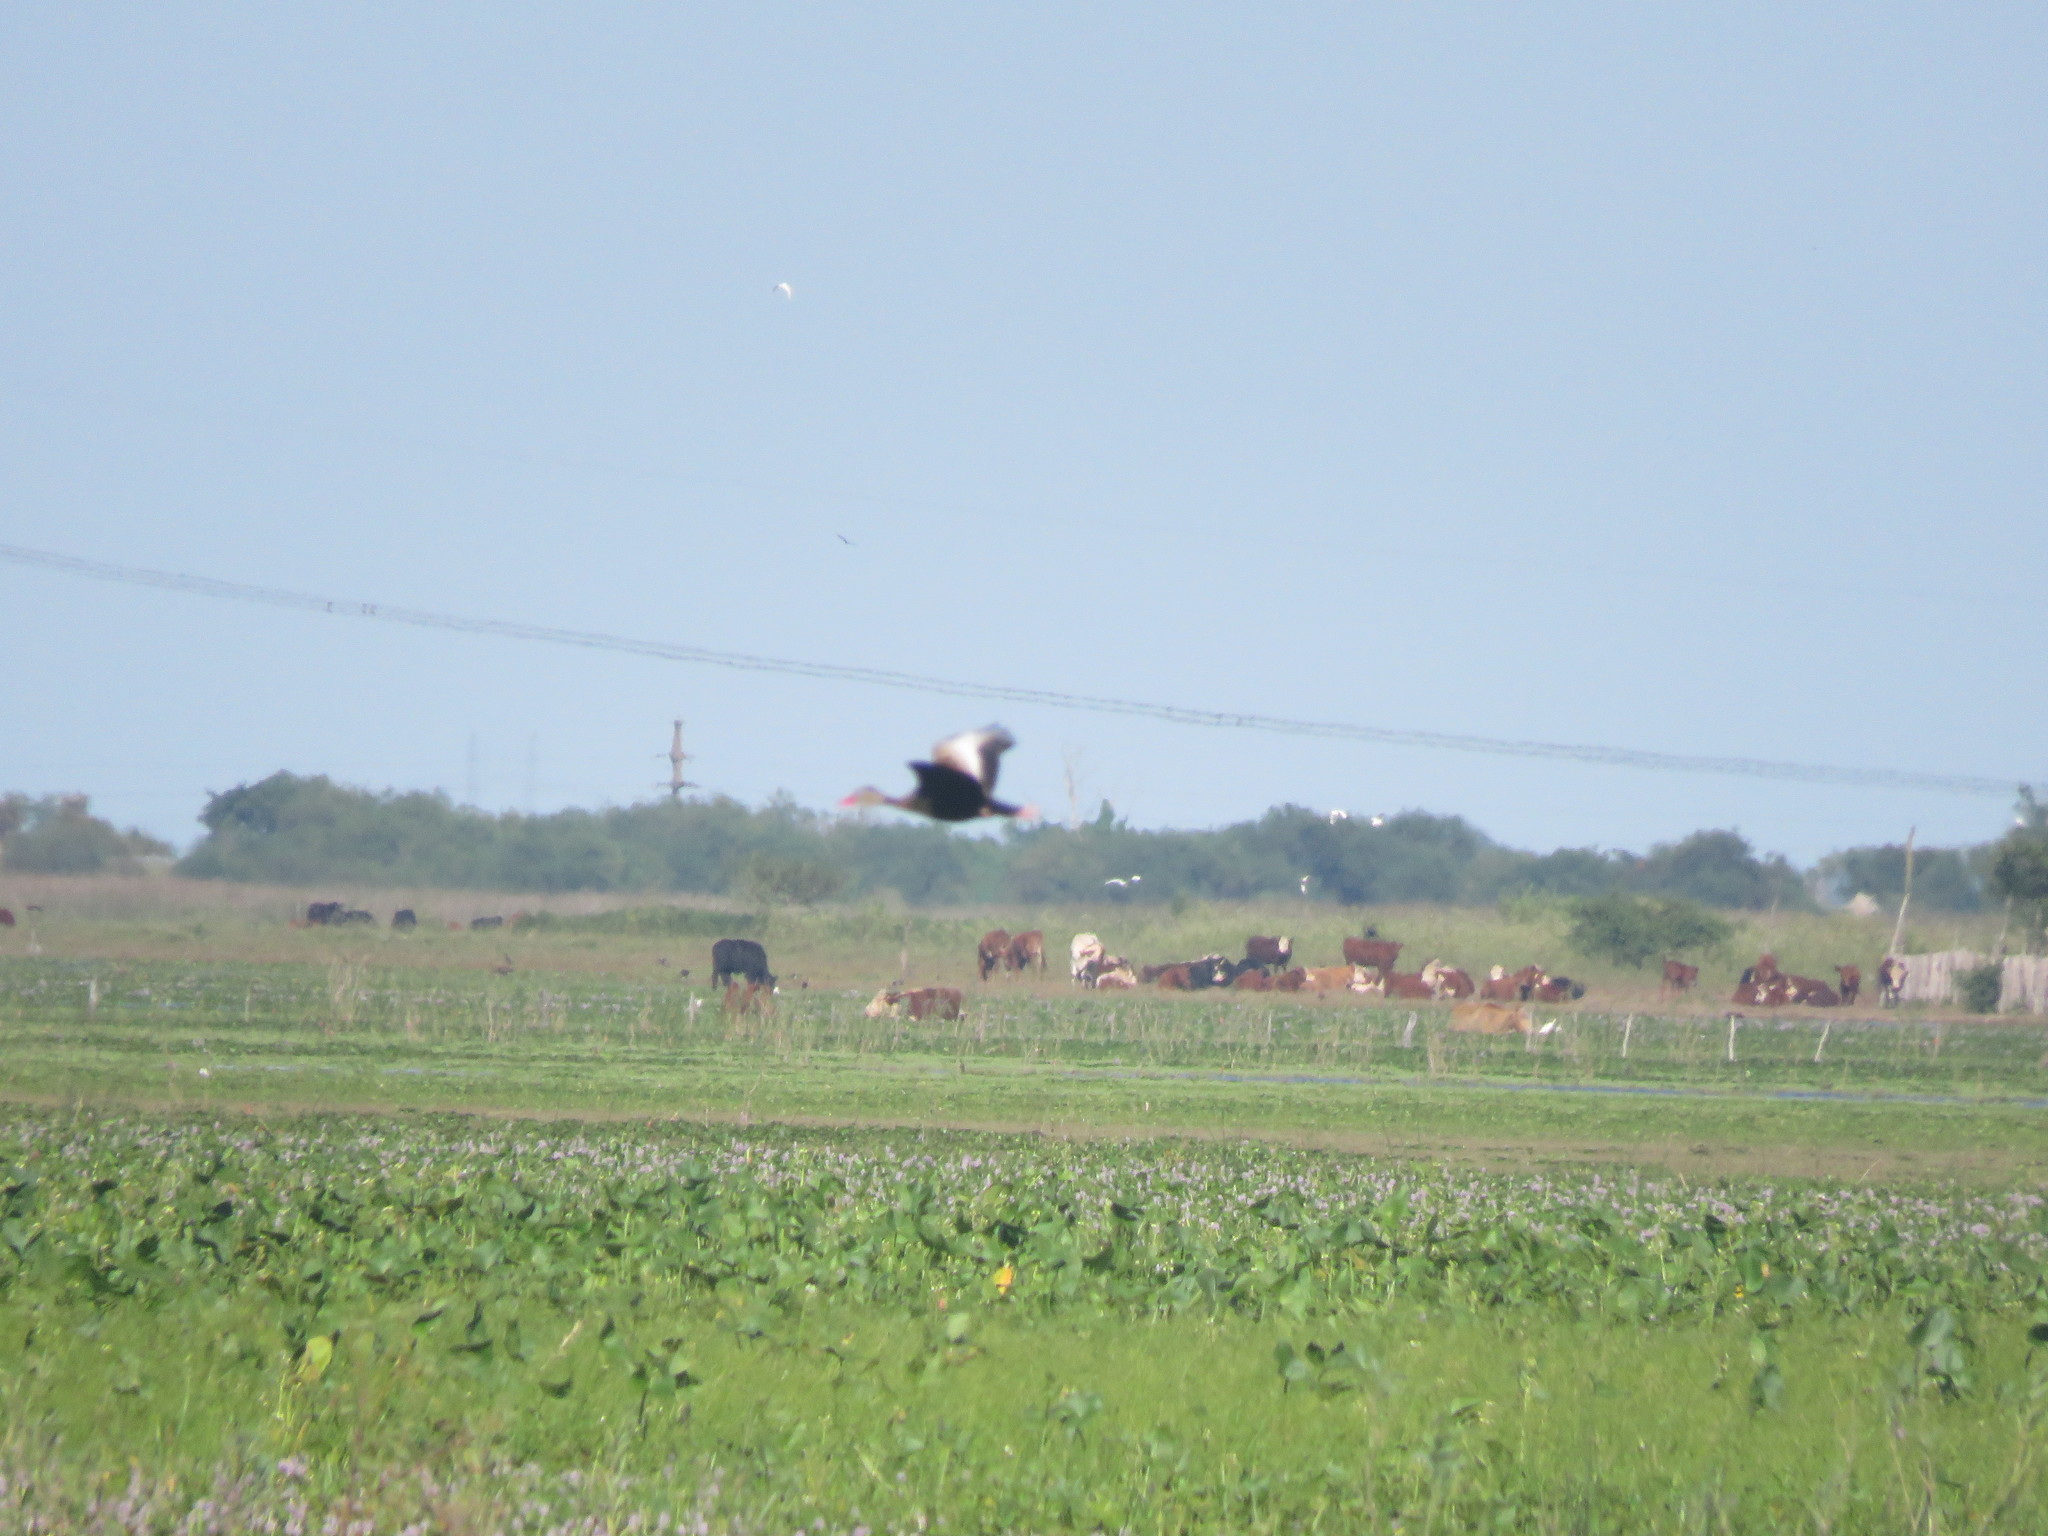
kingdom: Animalia
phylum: Chordata
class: Aves
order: Anseriformes
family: Anatidae
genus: Dendrocygna
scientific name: Dendrocygna autumnalis
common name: Black-bellied whistling duck
